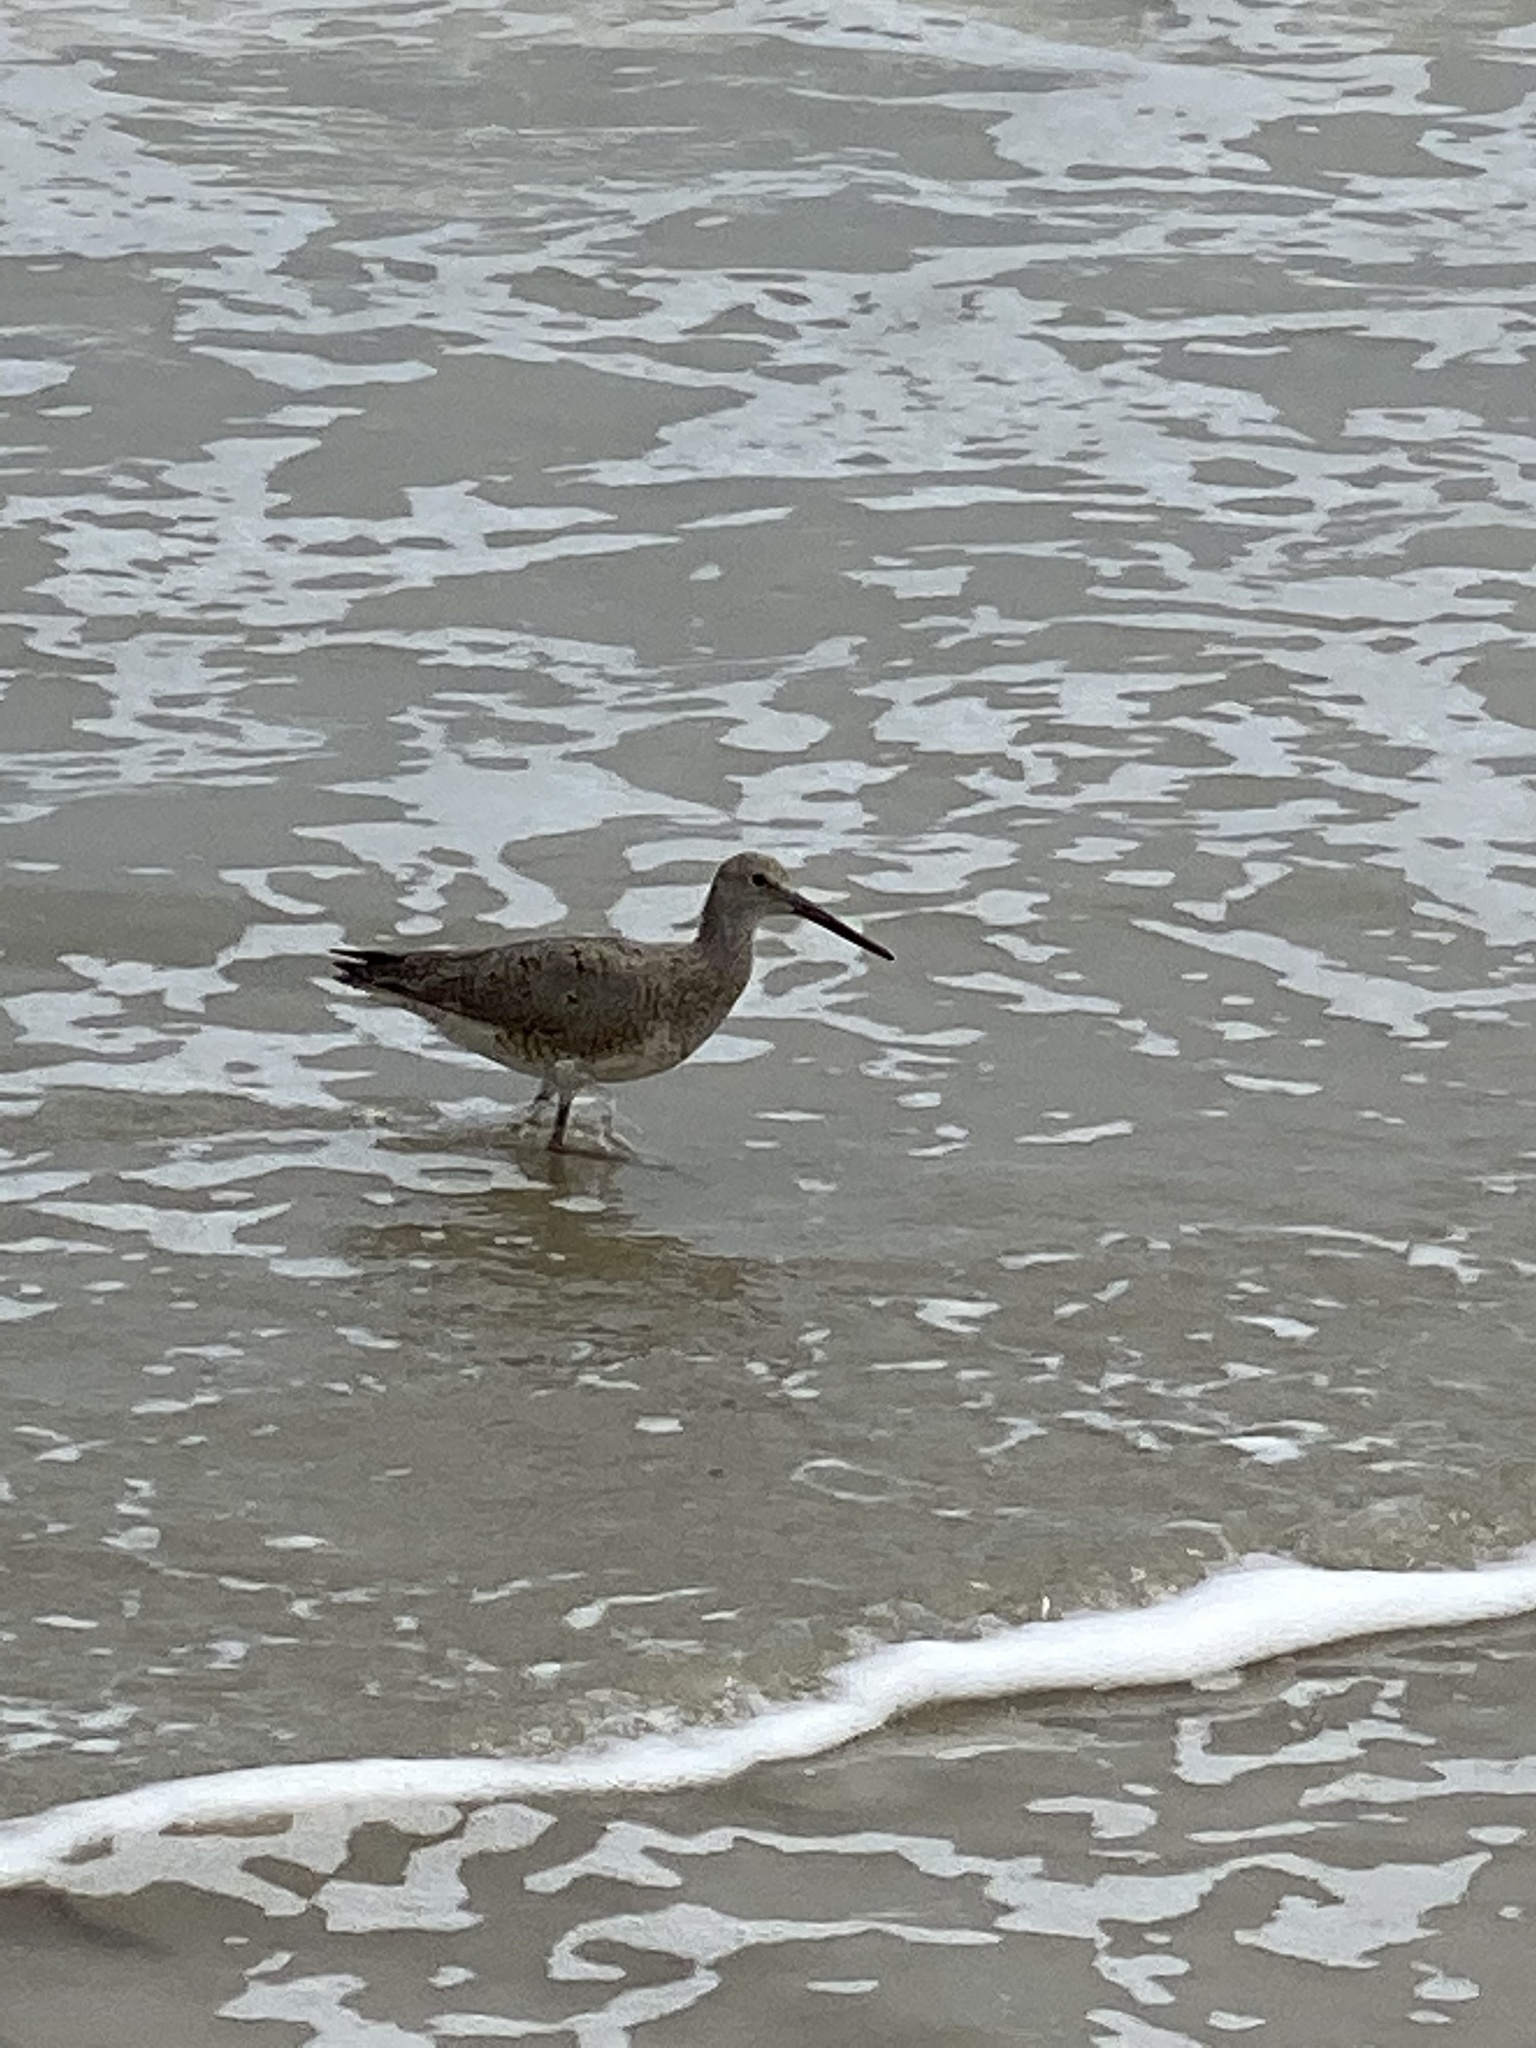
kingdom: Animalia
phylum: Chordata
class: Aves
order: Charadriiformes
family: Scolopacidae
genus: Tringa
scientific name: Tringa semipalmata
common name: Willet
